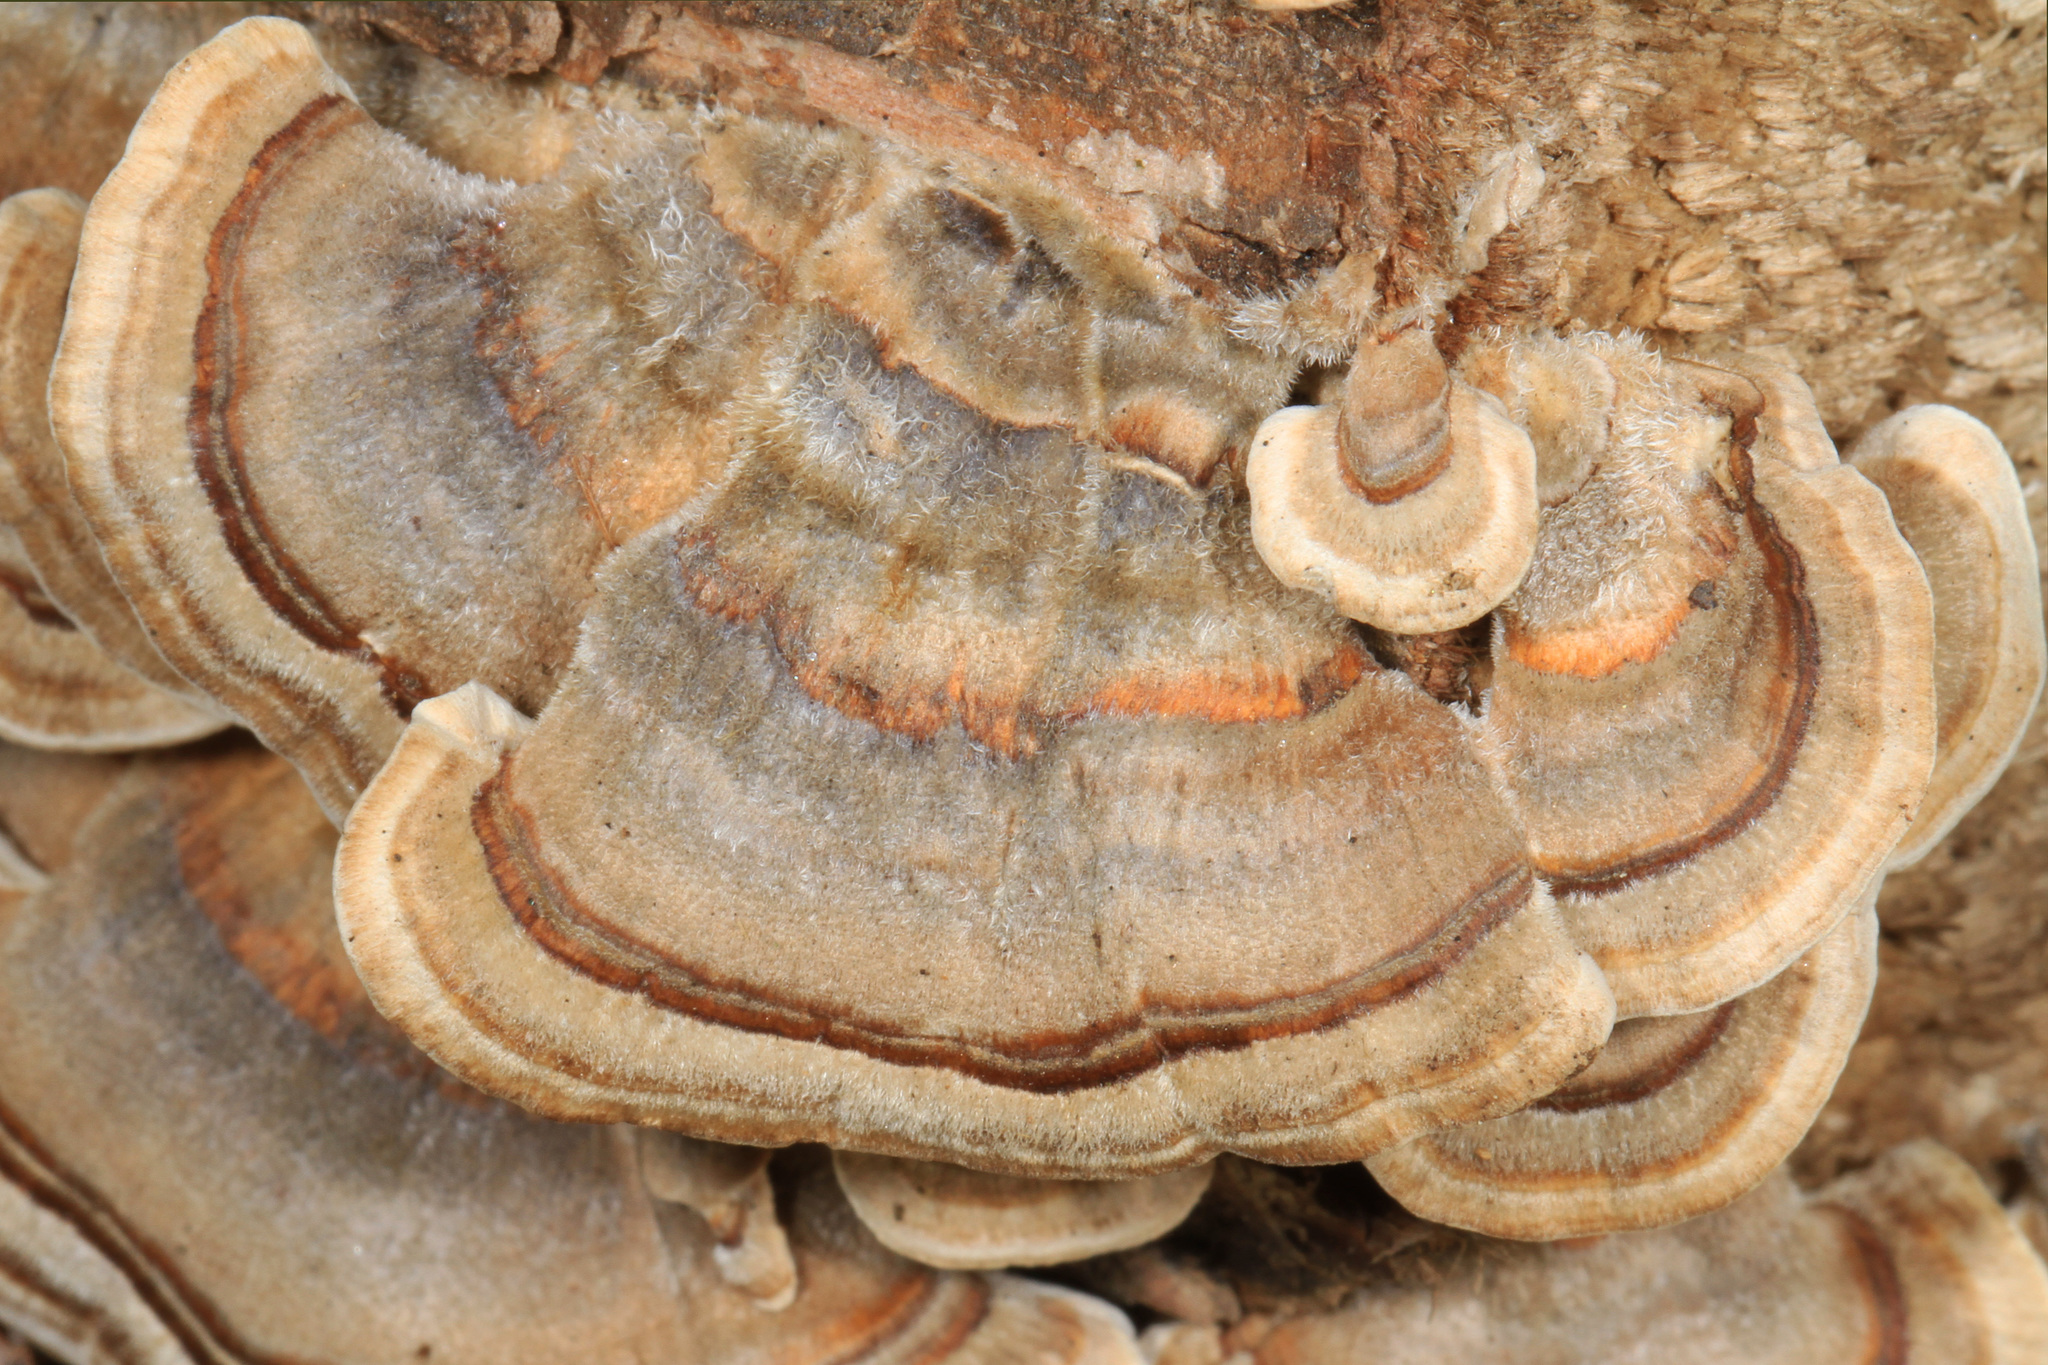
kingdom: Fungi
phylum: Basidiomycota
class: Agaricomycetes
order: Polyporales
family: Polyporaceae
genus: Trametes
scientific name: Trametes versicolor
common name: Turkeytail
